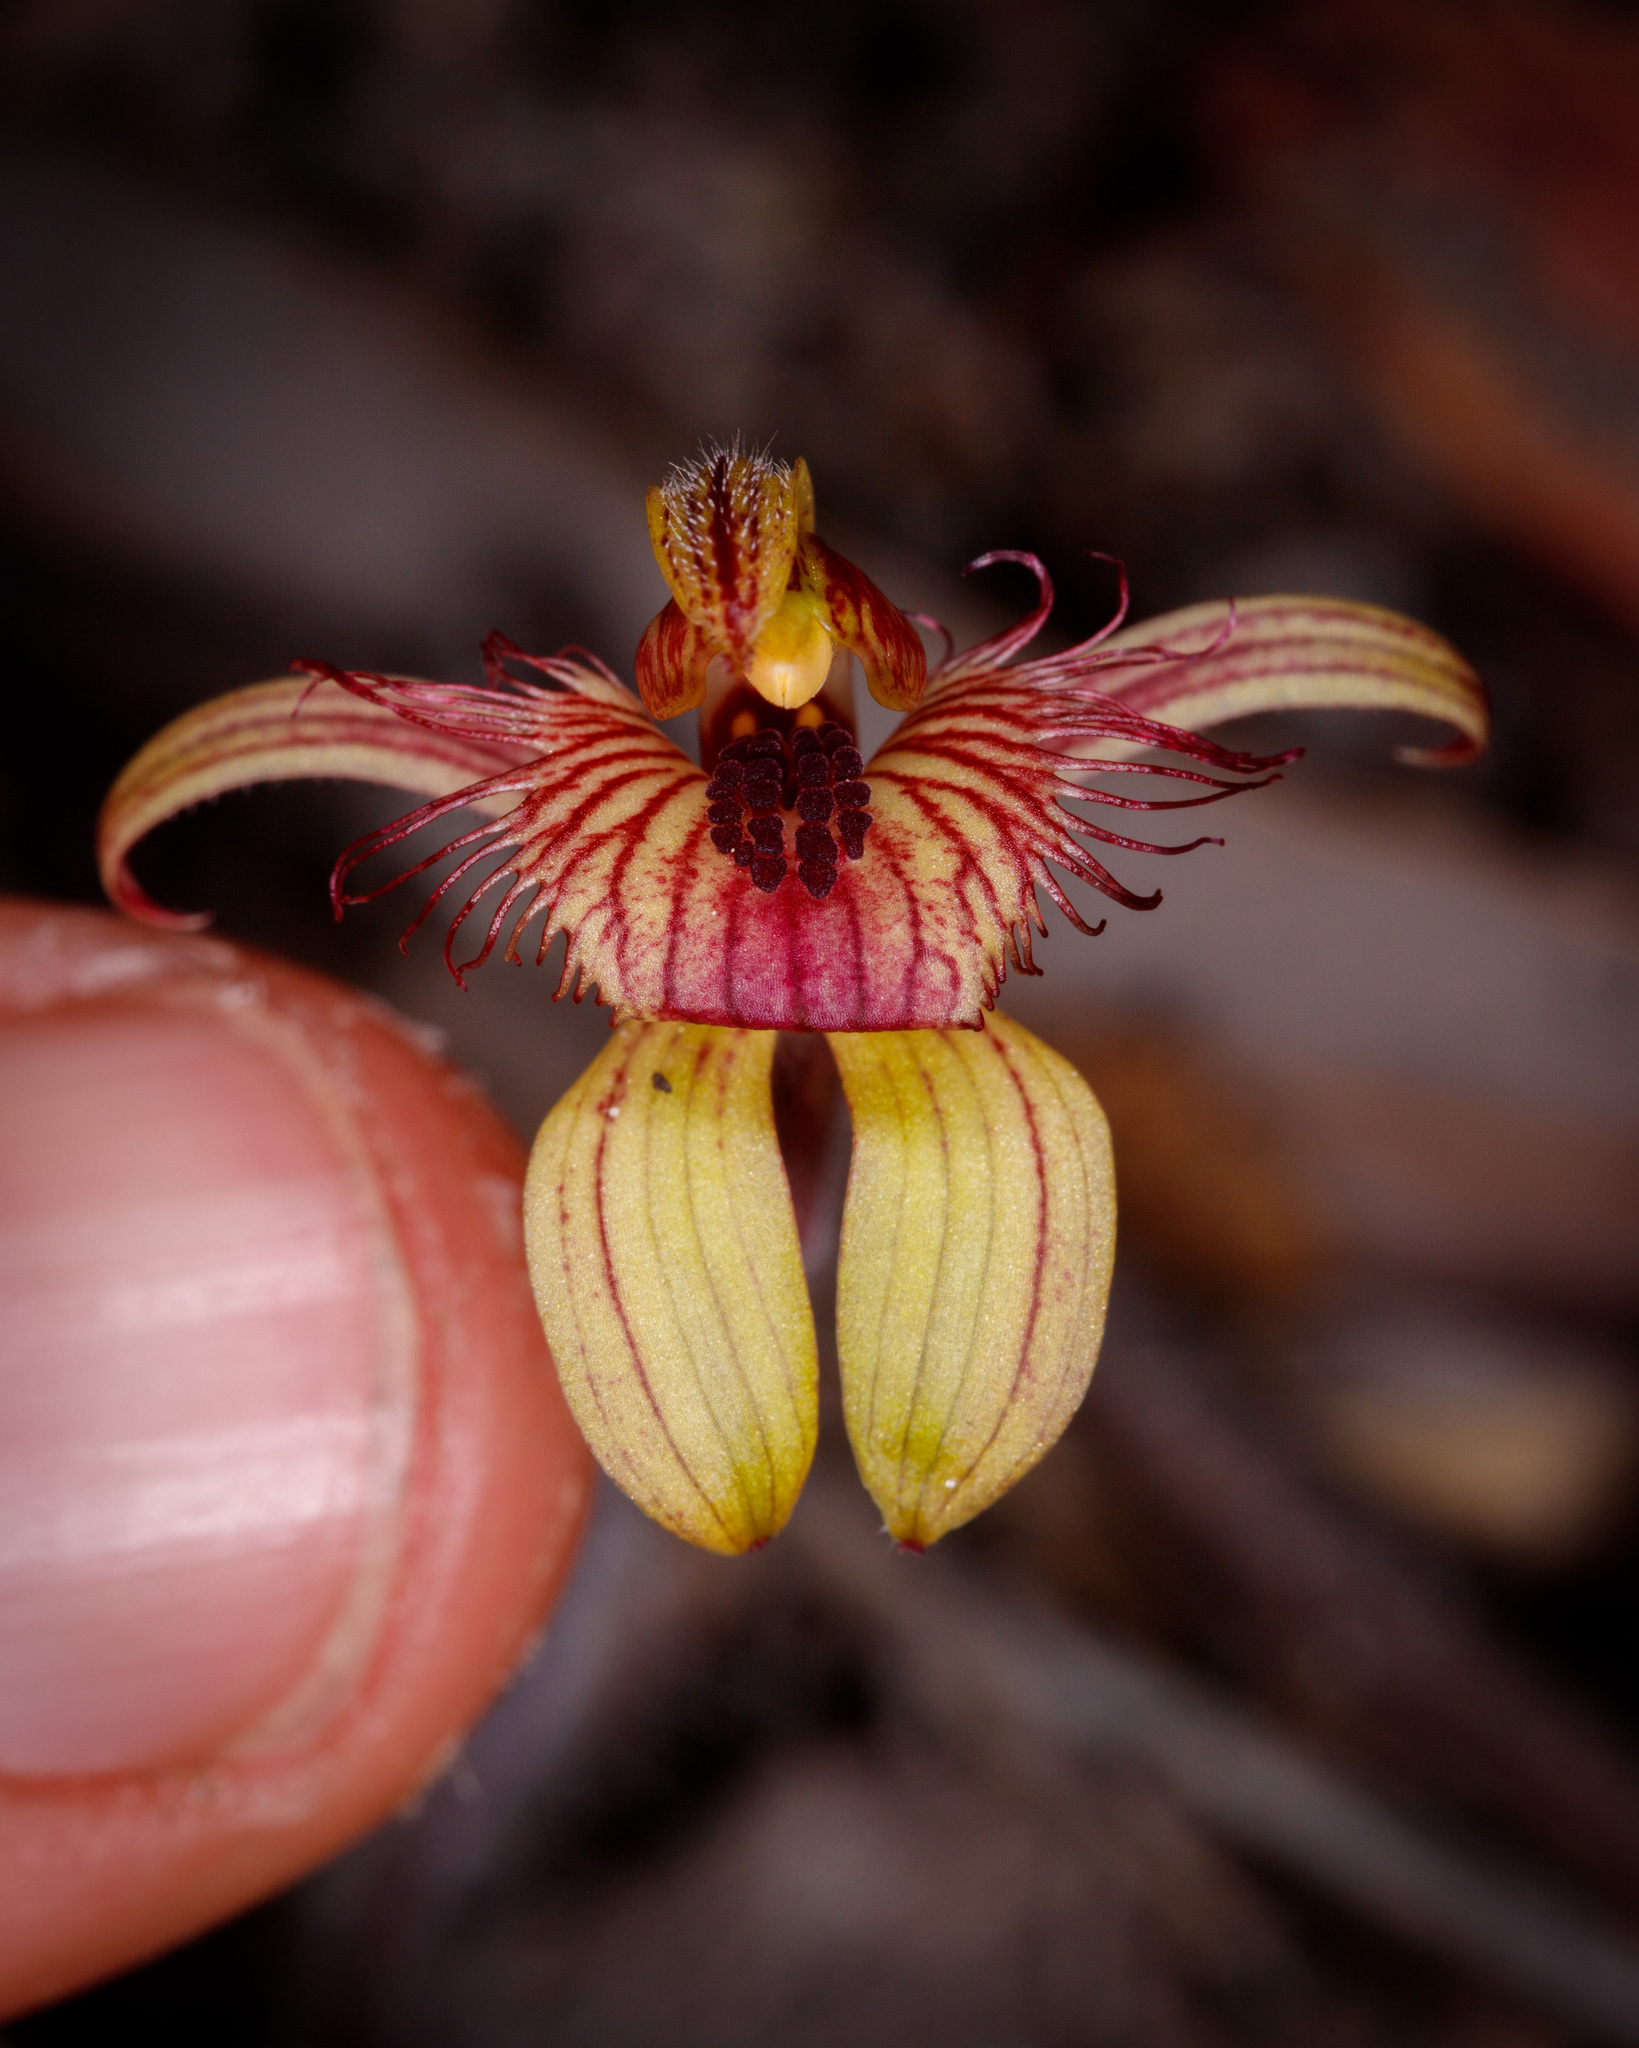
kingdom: Plantae
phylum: Tracheophyta
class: Liliopsida
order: Asparagales
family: Orchidaceae
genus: Caladenia
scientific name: Caladenia discoidea
